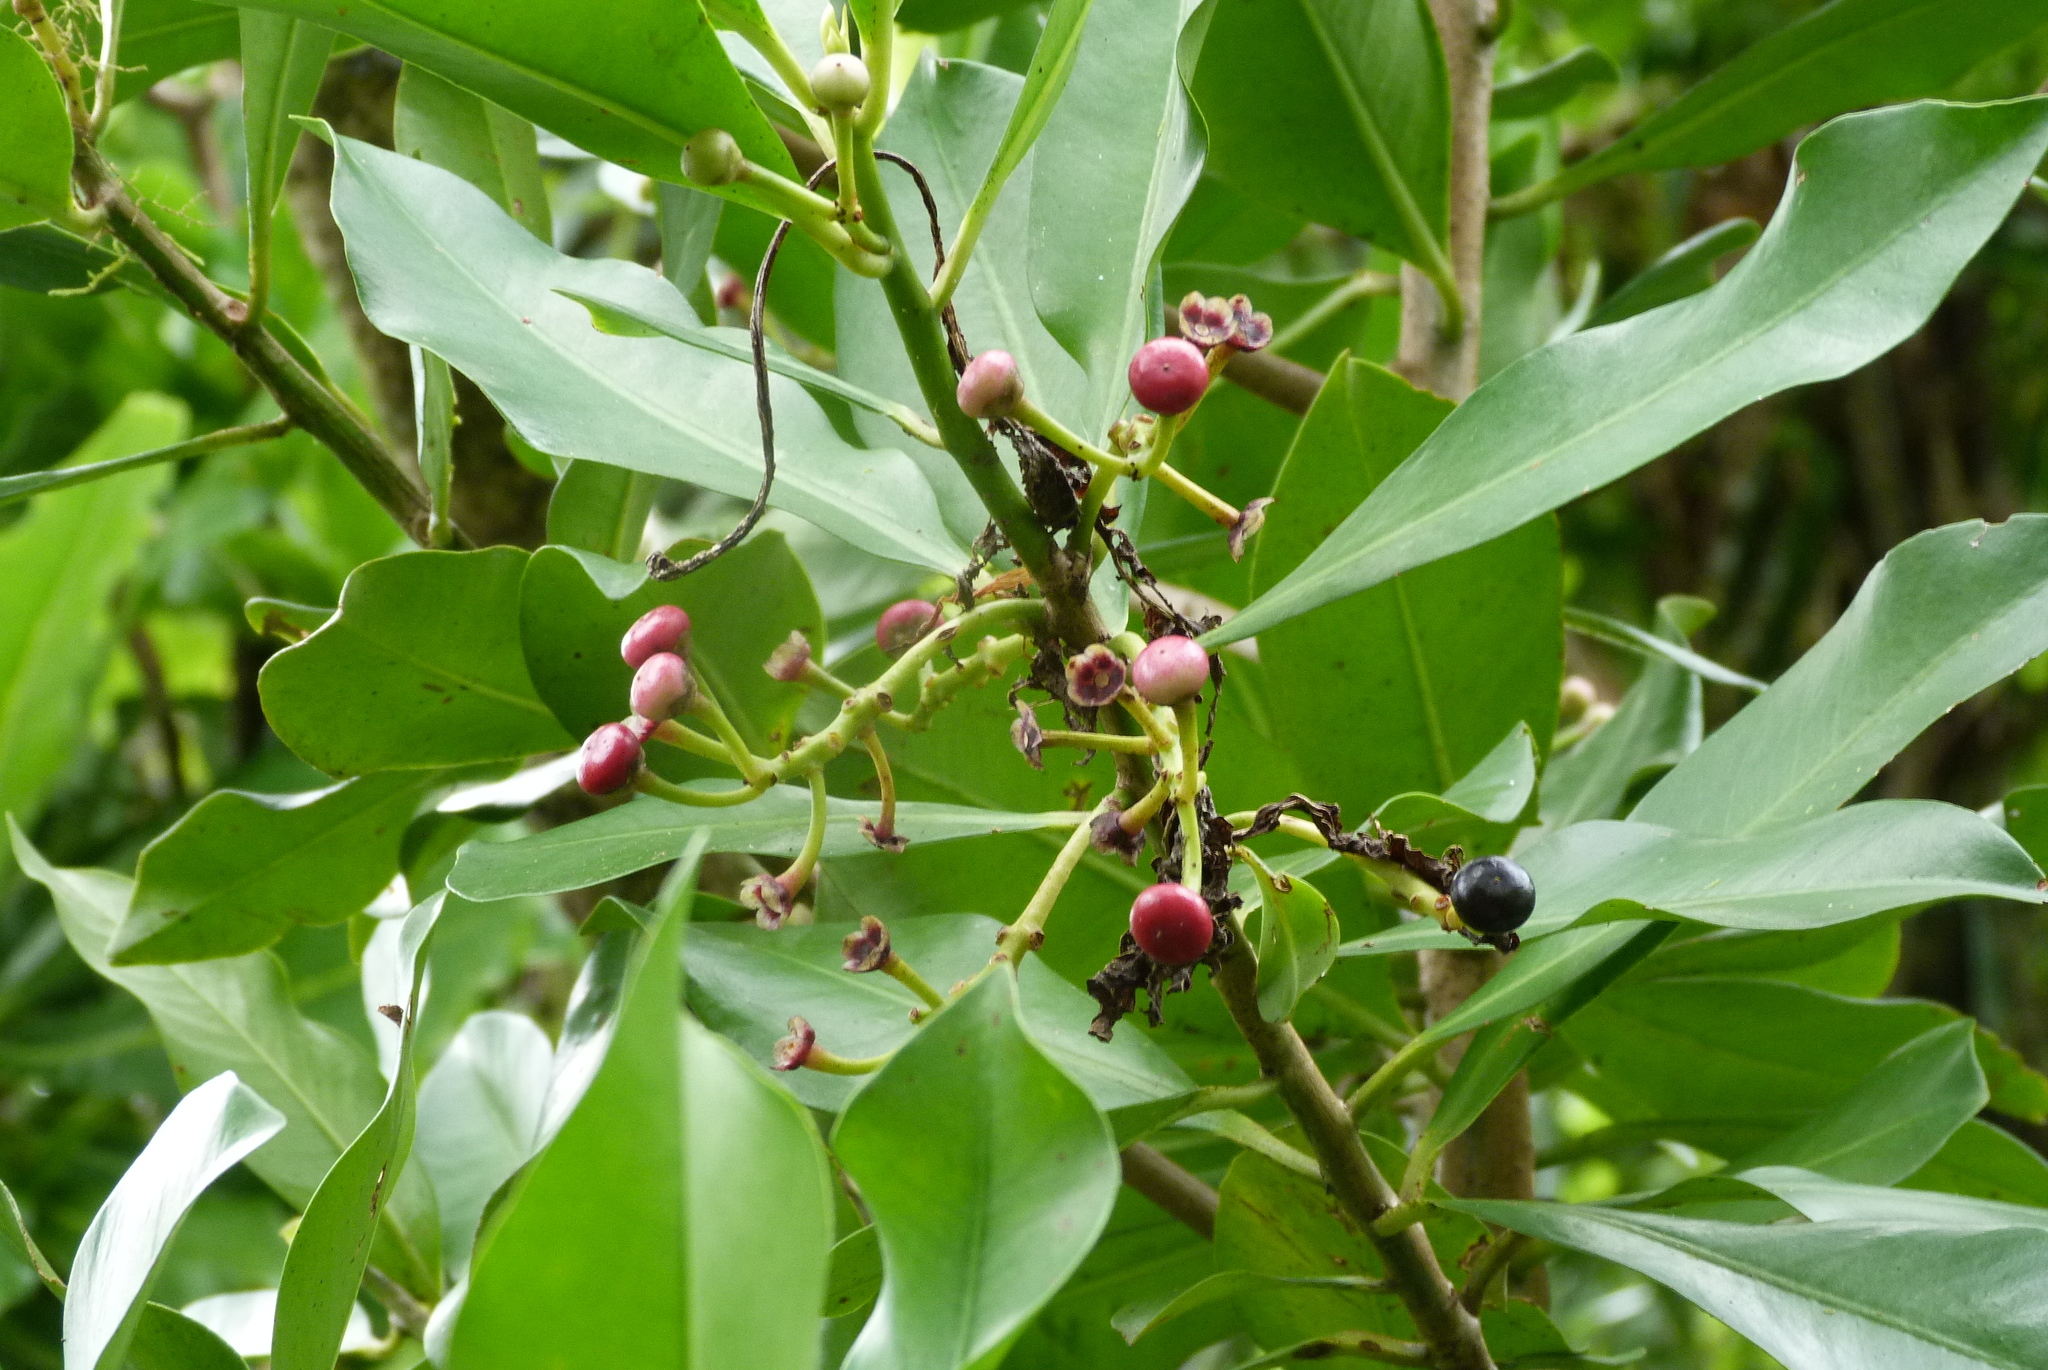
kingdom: Plantae
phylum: Tracheophyta
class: Magnoliopsida
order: Ericales
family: Primulaceae
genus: Ardisia
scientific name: Ardisia elliptica
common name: Shoebutton
